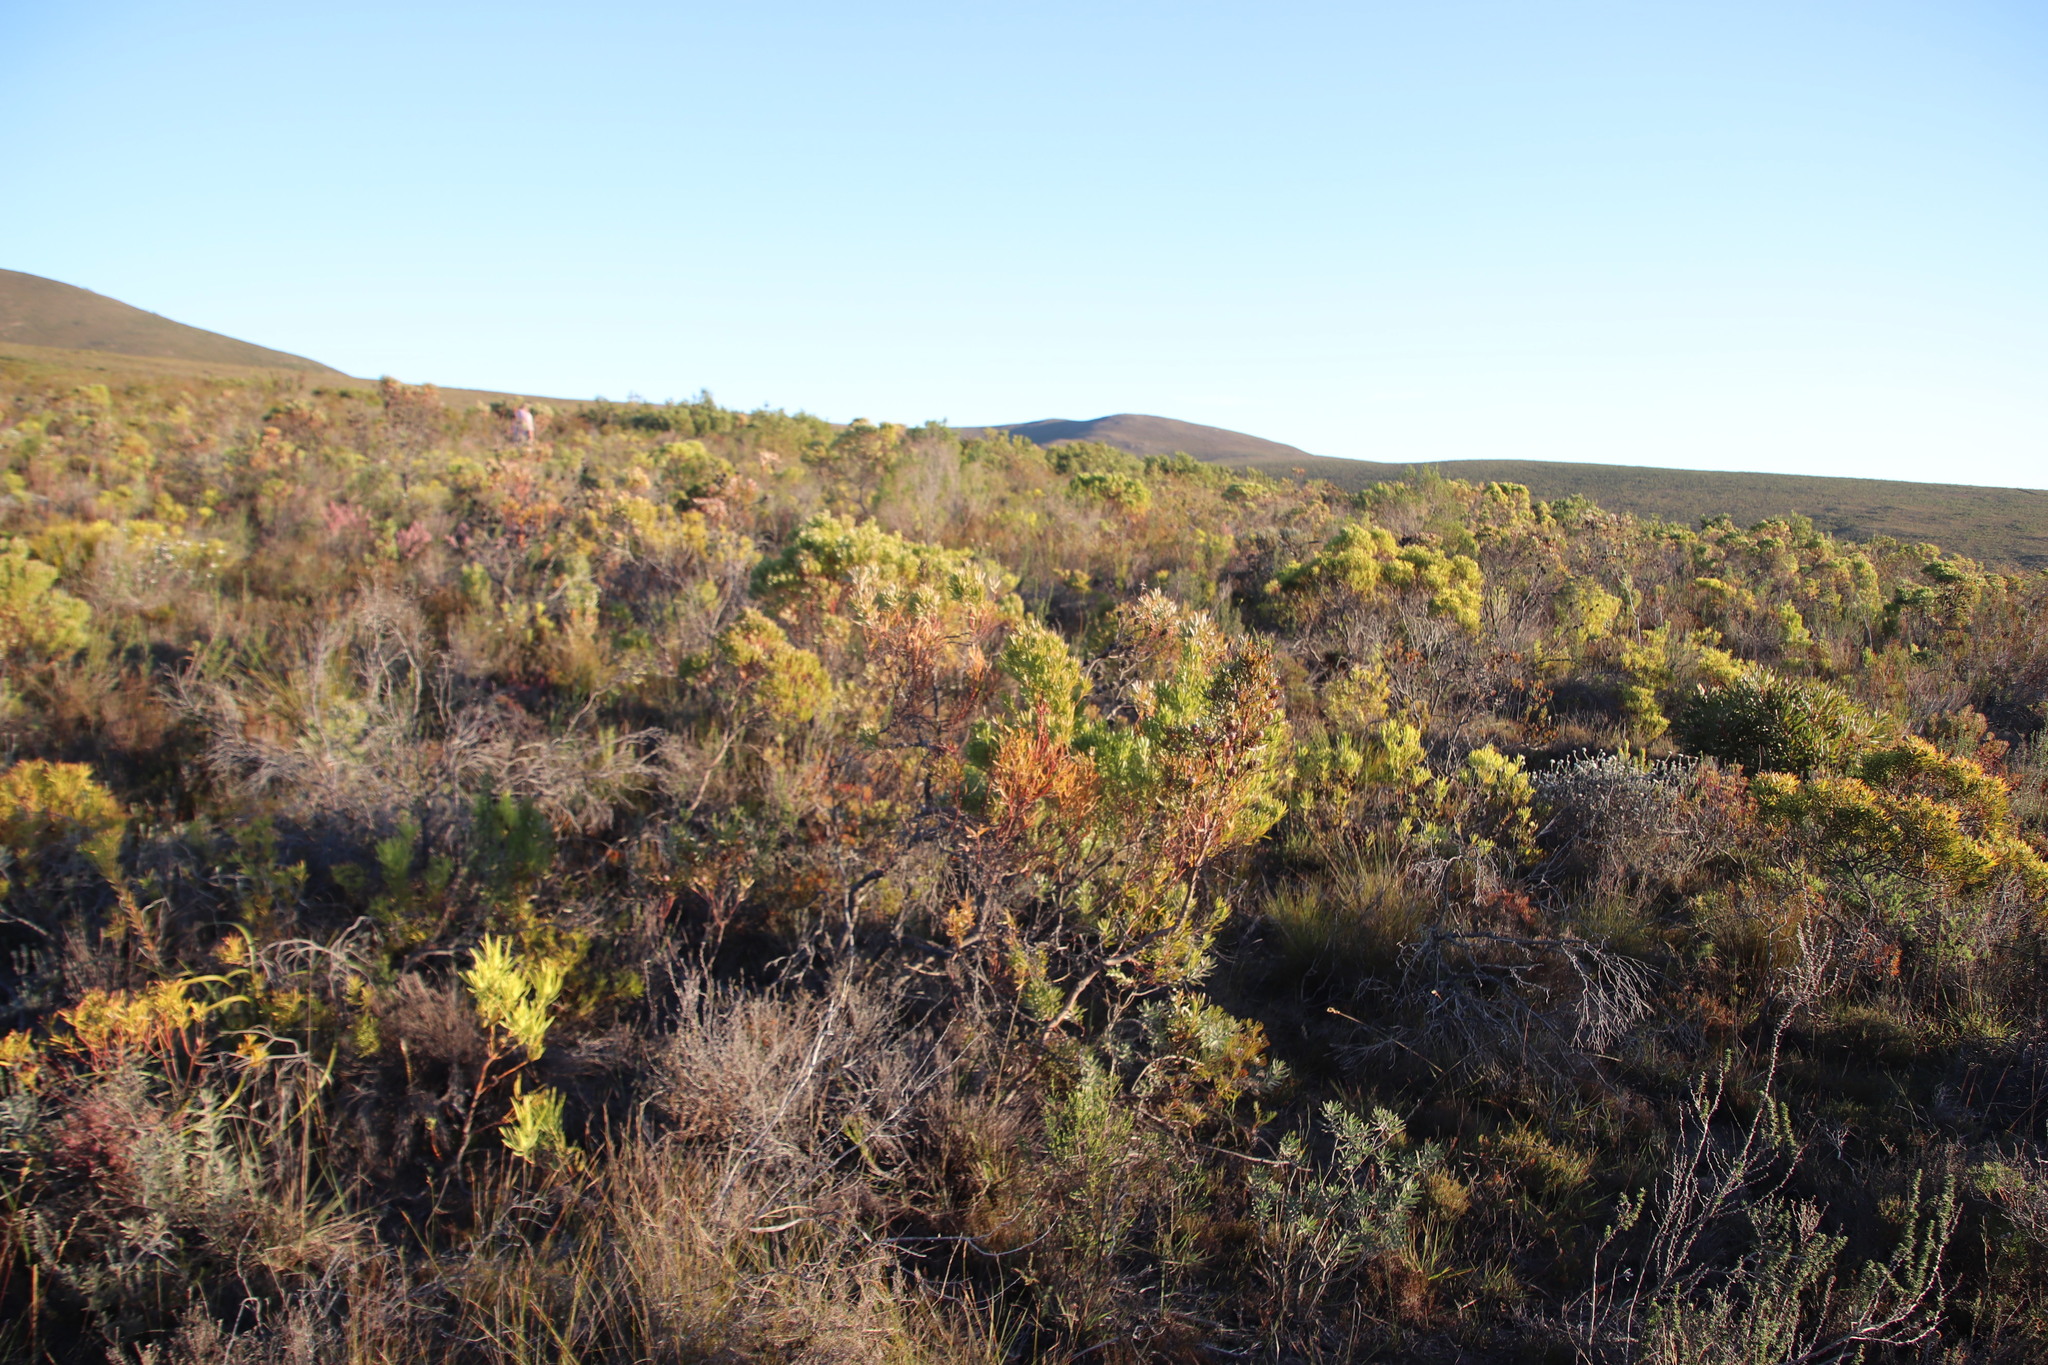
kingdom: Plantae
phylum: Tracheophyta
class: Magnoliopsida
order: Proteales
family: Proteaceae
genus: Leucadendron
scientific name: Leucadendron xanthoconus
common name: Sickle-leaf conebush
